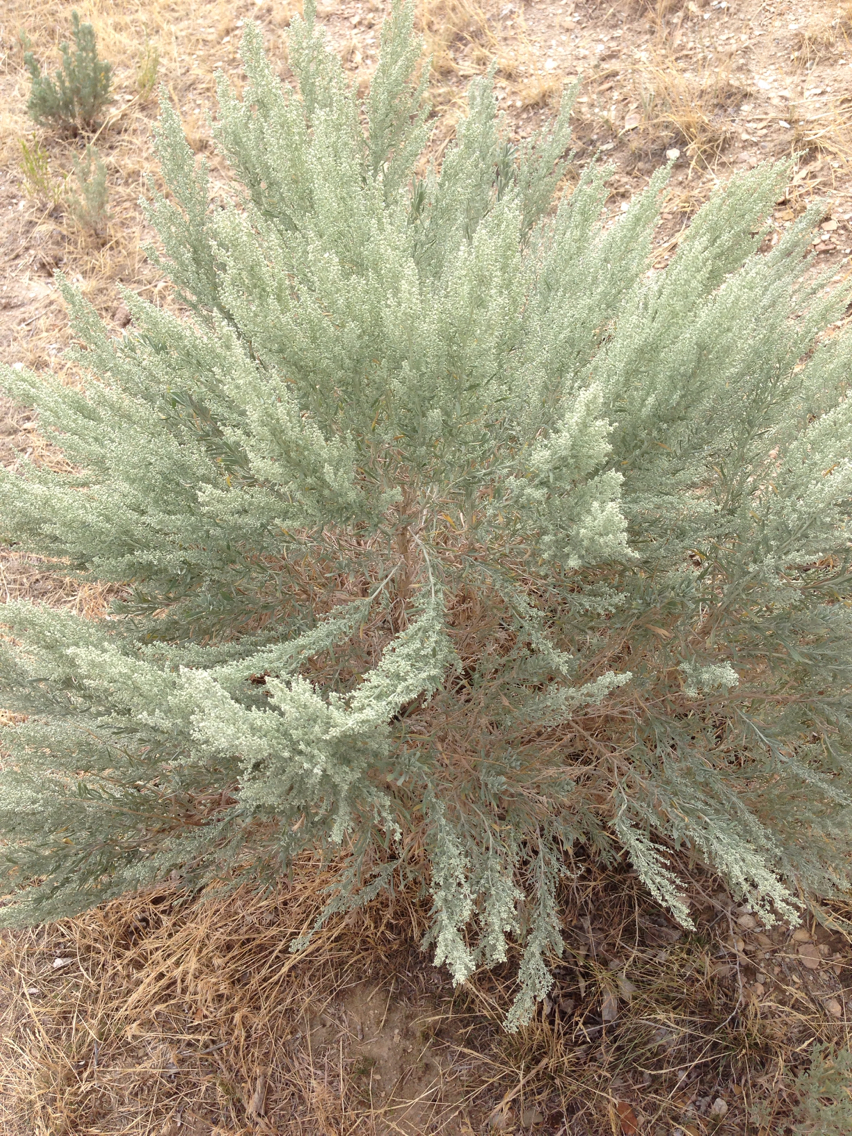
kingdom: Plantae
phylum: Tracheophyta
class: Magnoliopsida
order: Asterales
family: Asteraceae
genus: Artemisia
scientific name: Artemisia filifolia
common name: Sand-sage
